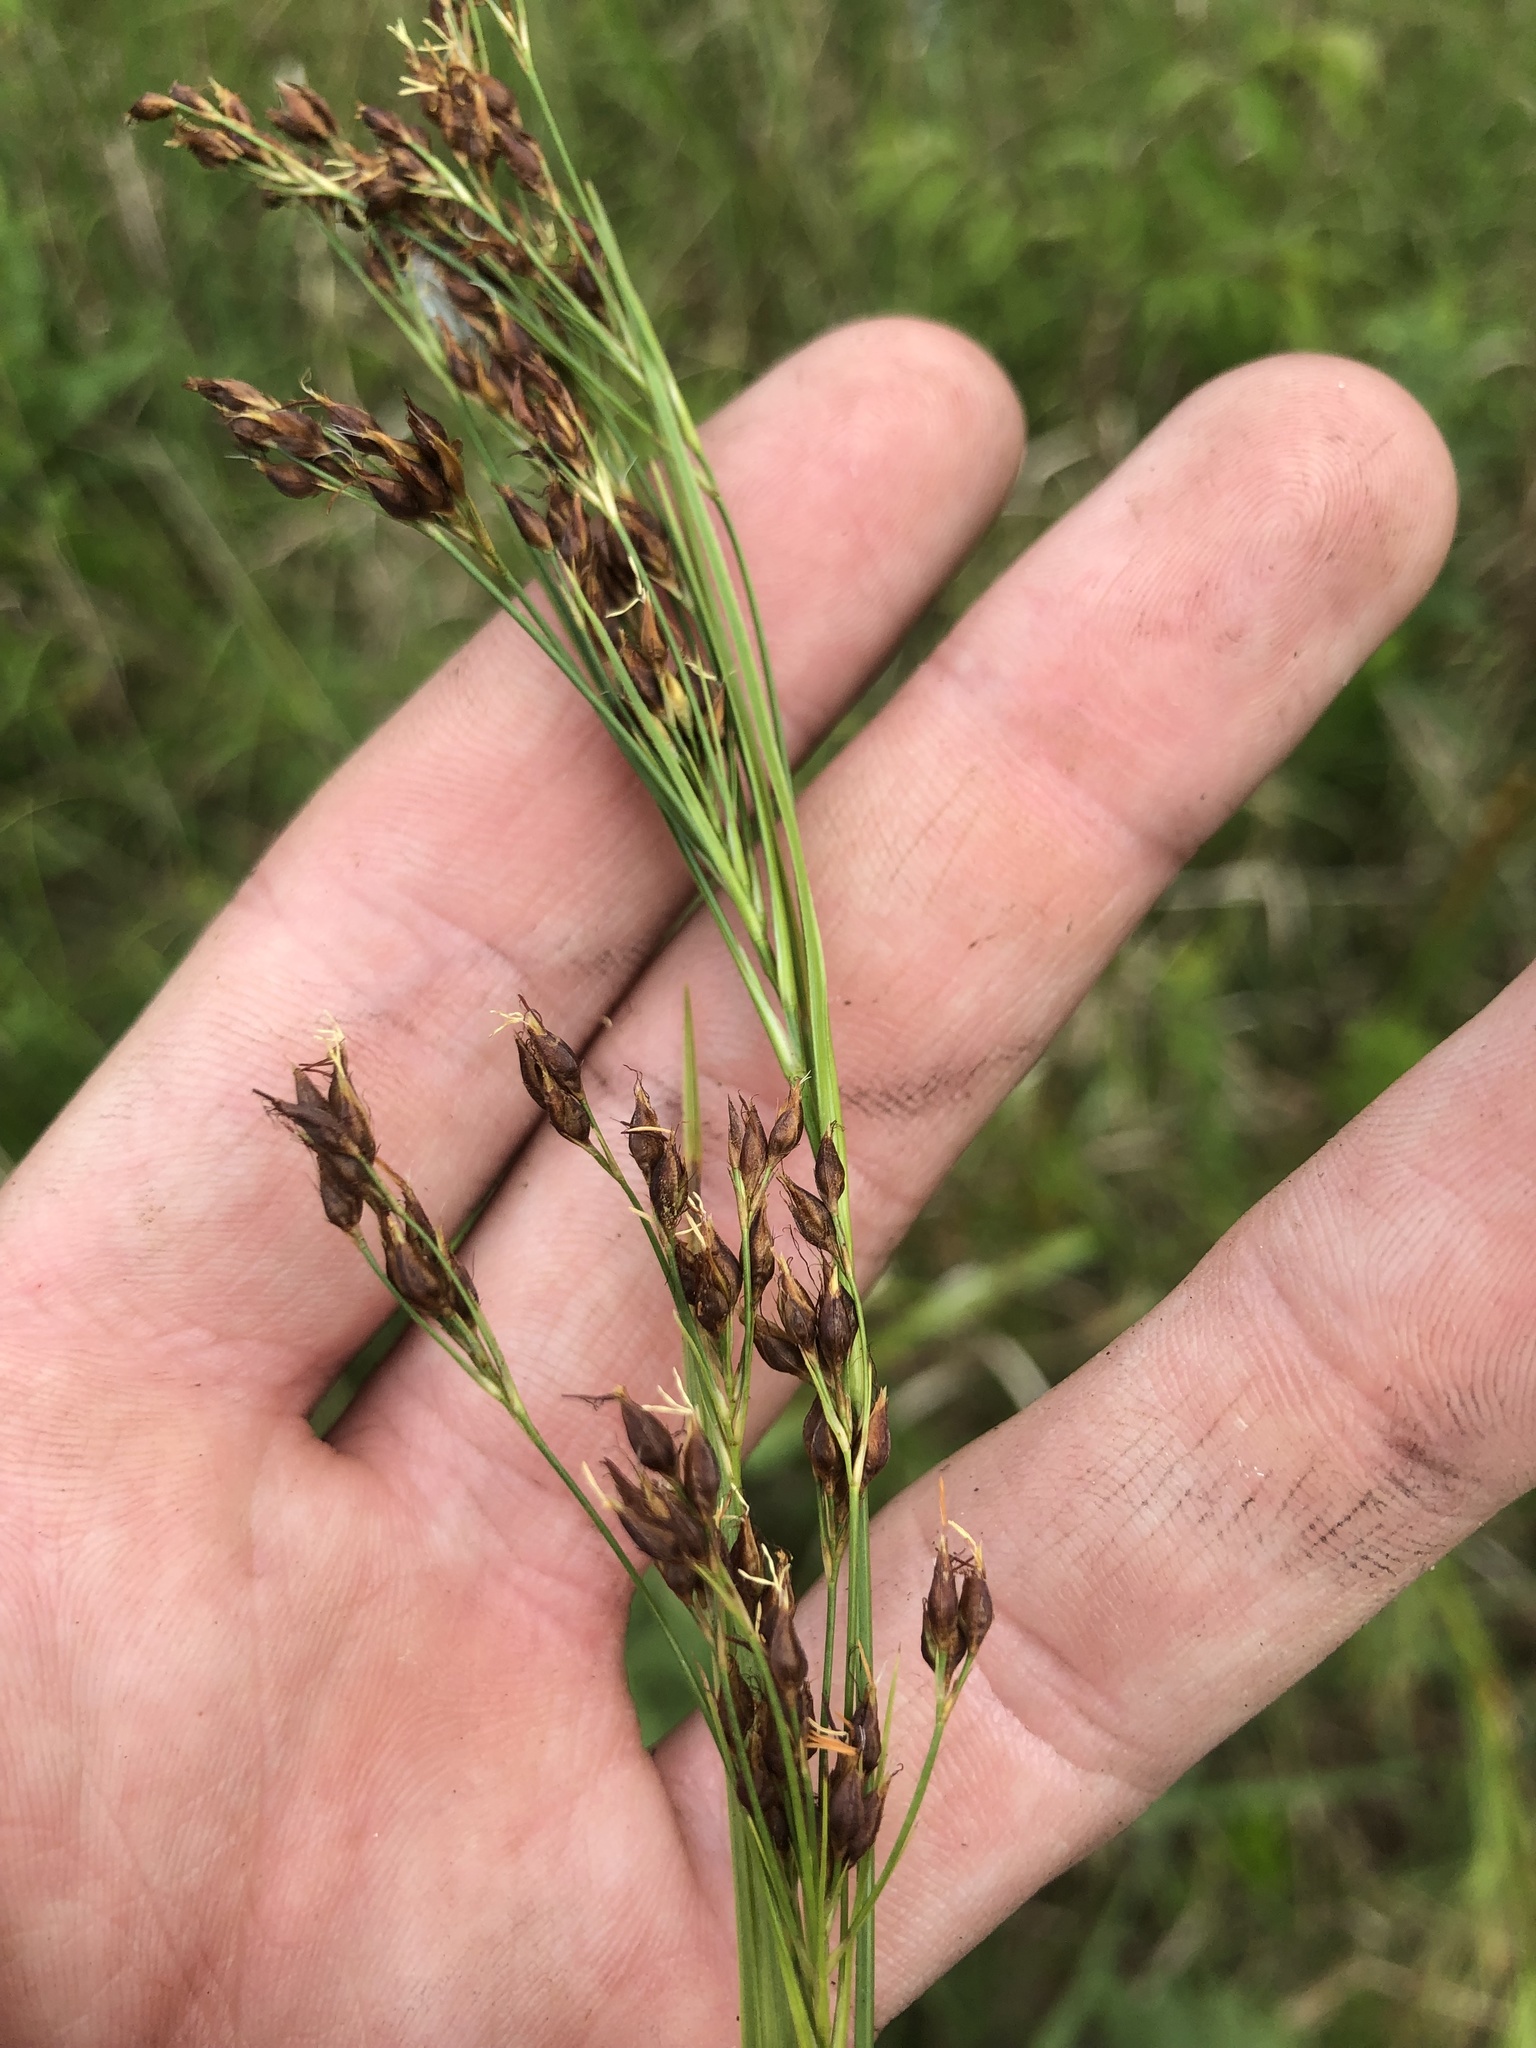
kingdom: Plantae
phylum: Tracheophyta
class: Liliopsida
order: Poales
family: Cyperaceae
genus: Rhynchospora
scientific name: Rhynchospora caduca
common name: Anglestem beaksedge
